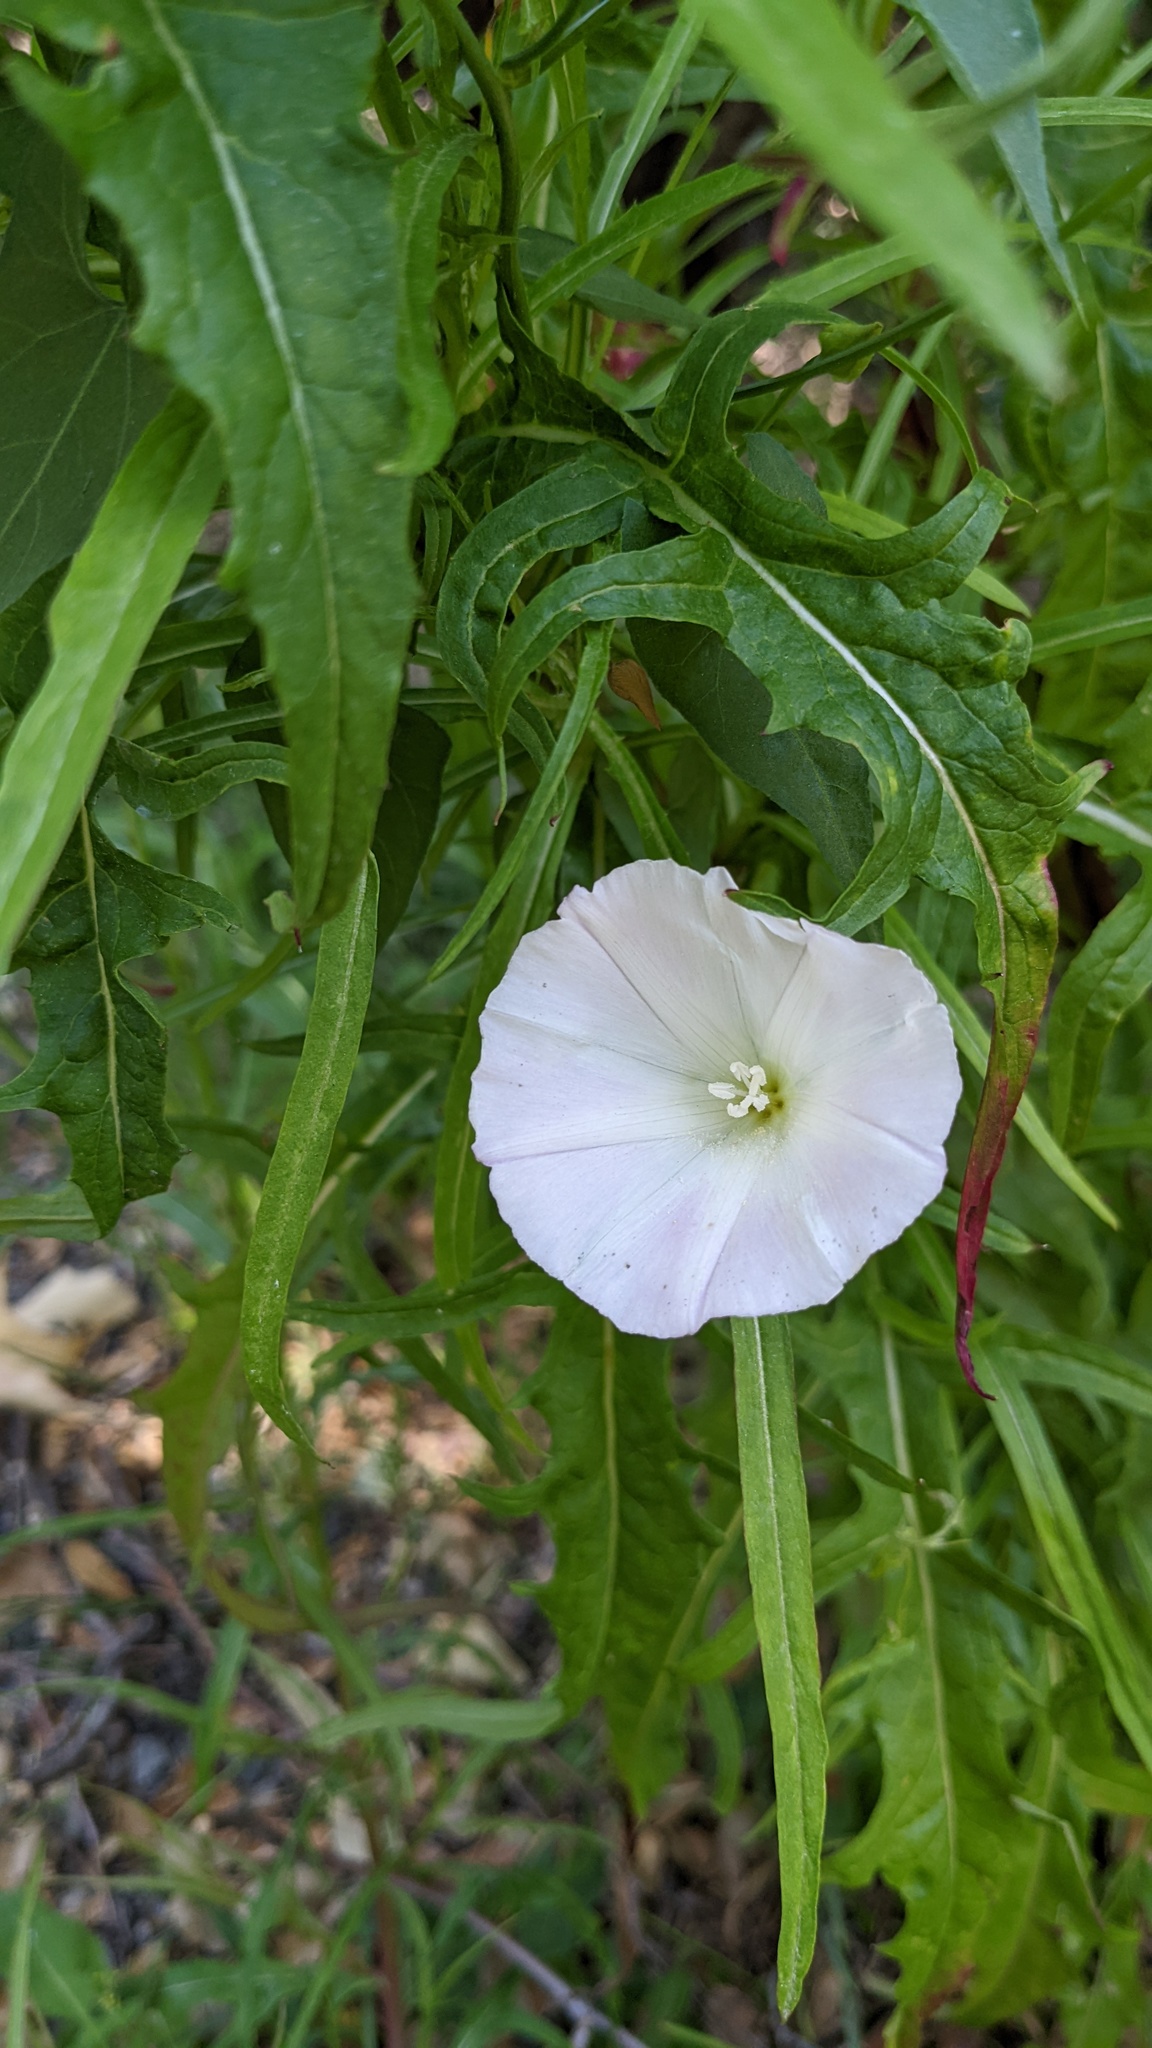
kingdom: Plantae
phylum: Tracheophyta
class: Magnoliopsida
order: Solanales
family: Convolvulaceae
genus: Calystegia
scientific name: Calystegia macrostegia
